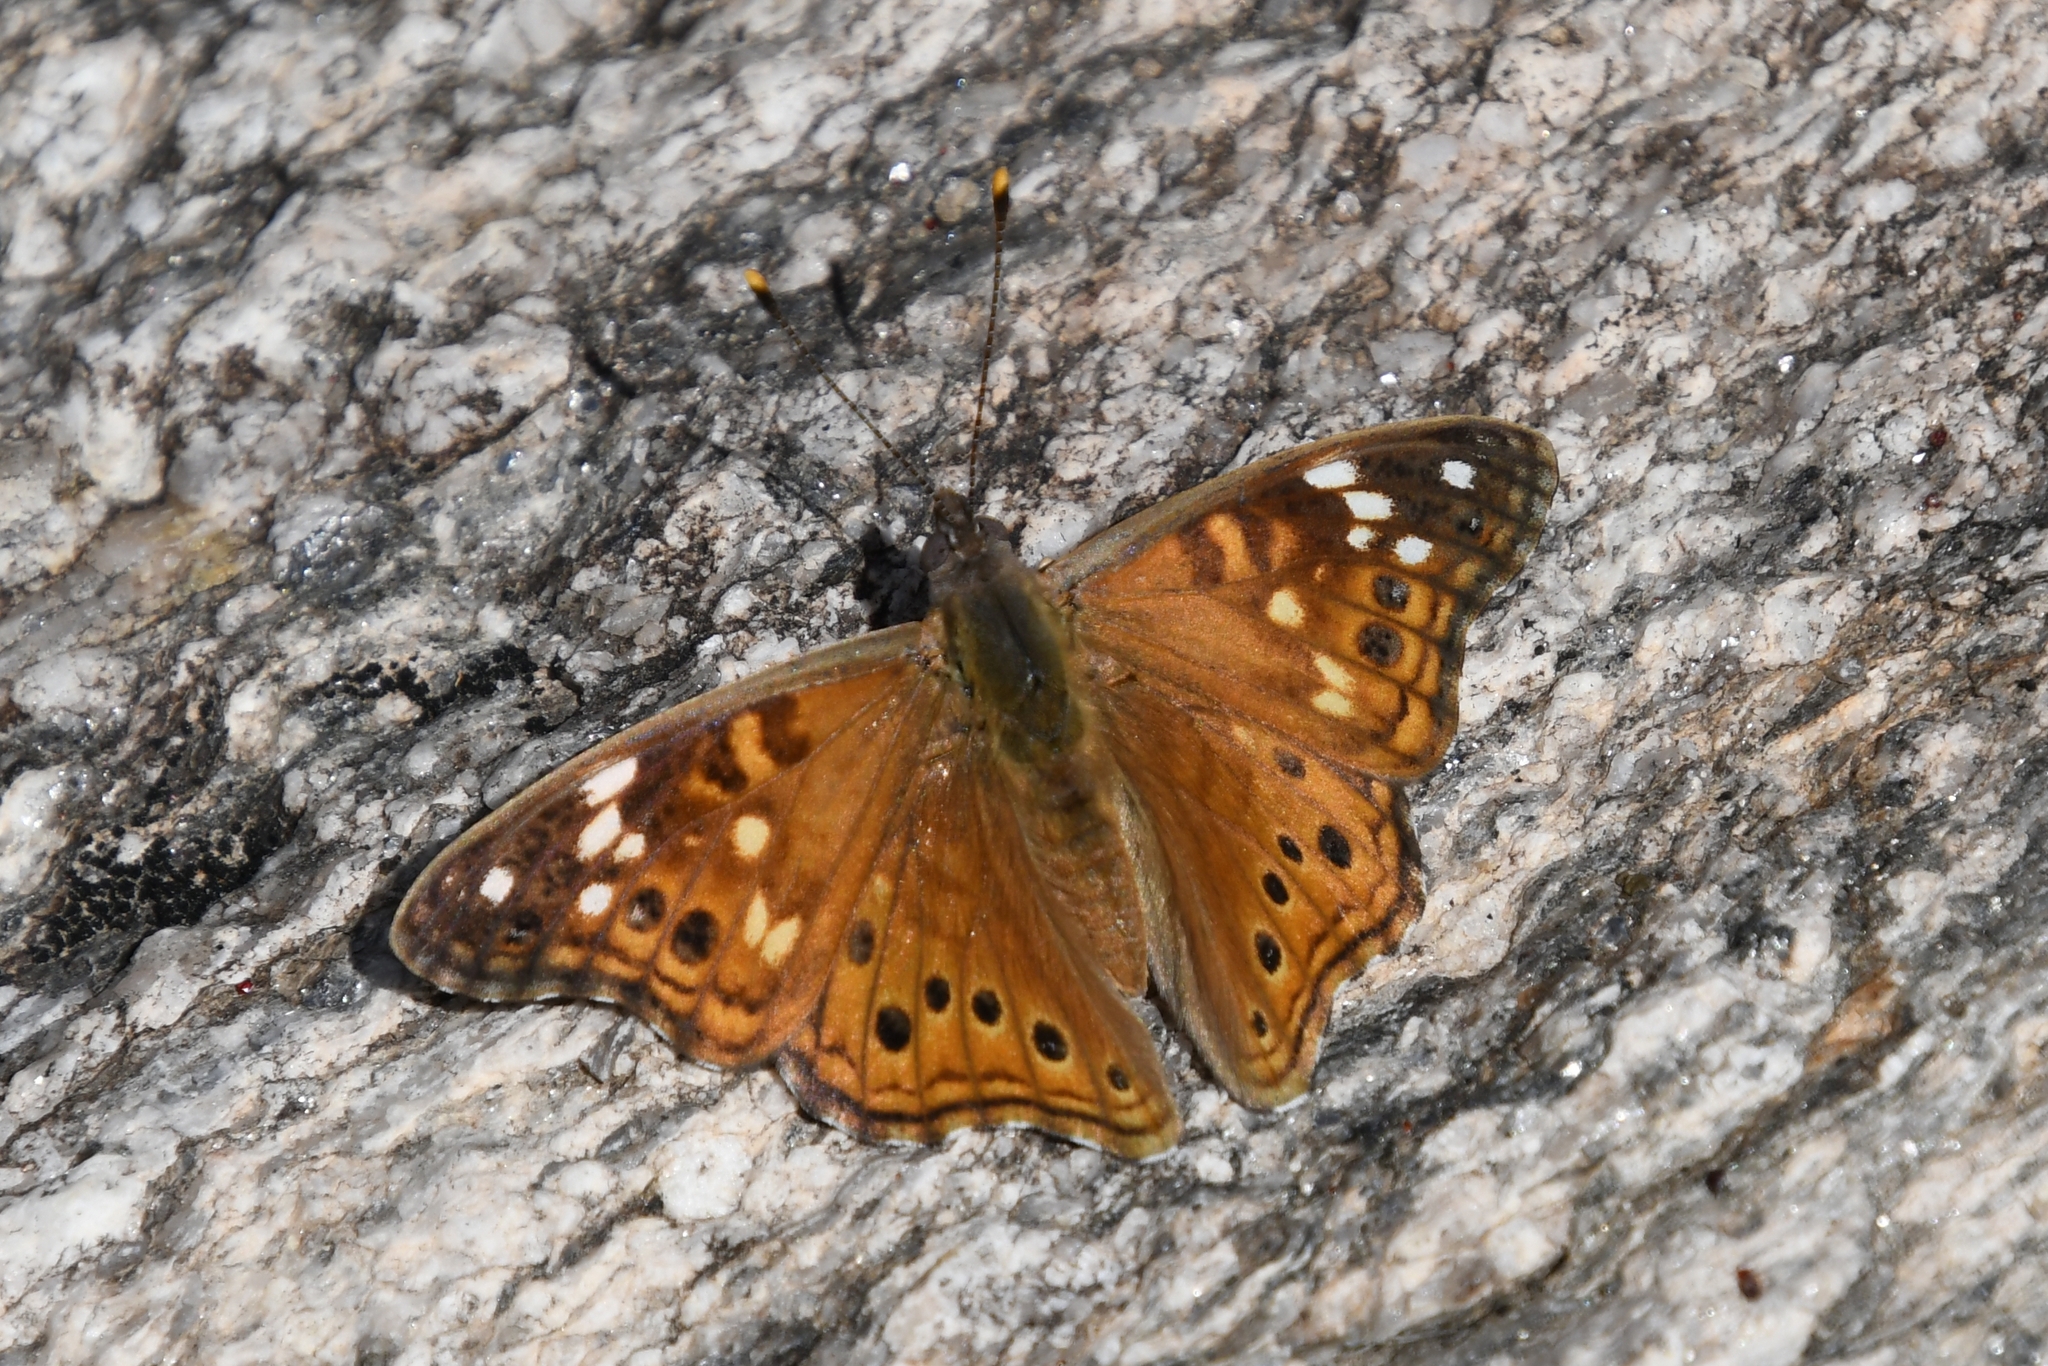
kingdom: Animalia
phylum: Arthropoda
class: Insecta
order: Lepidoptera
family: Nymphalidae
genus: Asterocampa
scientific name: Asterocampa leilia
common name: Empress leilia
